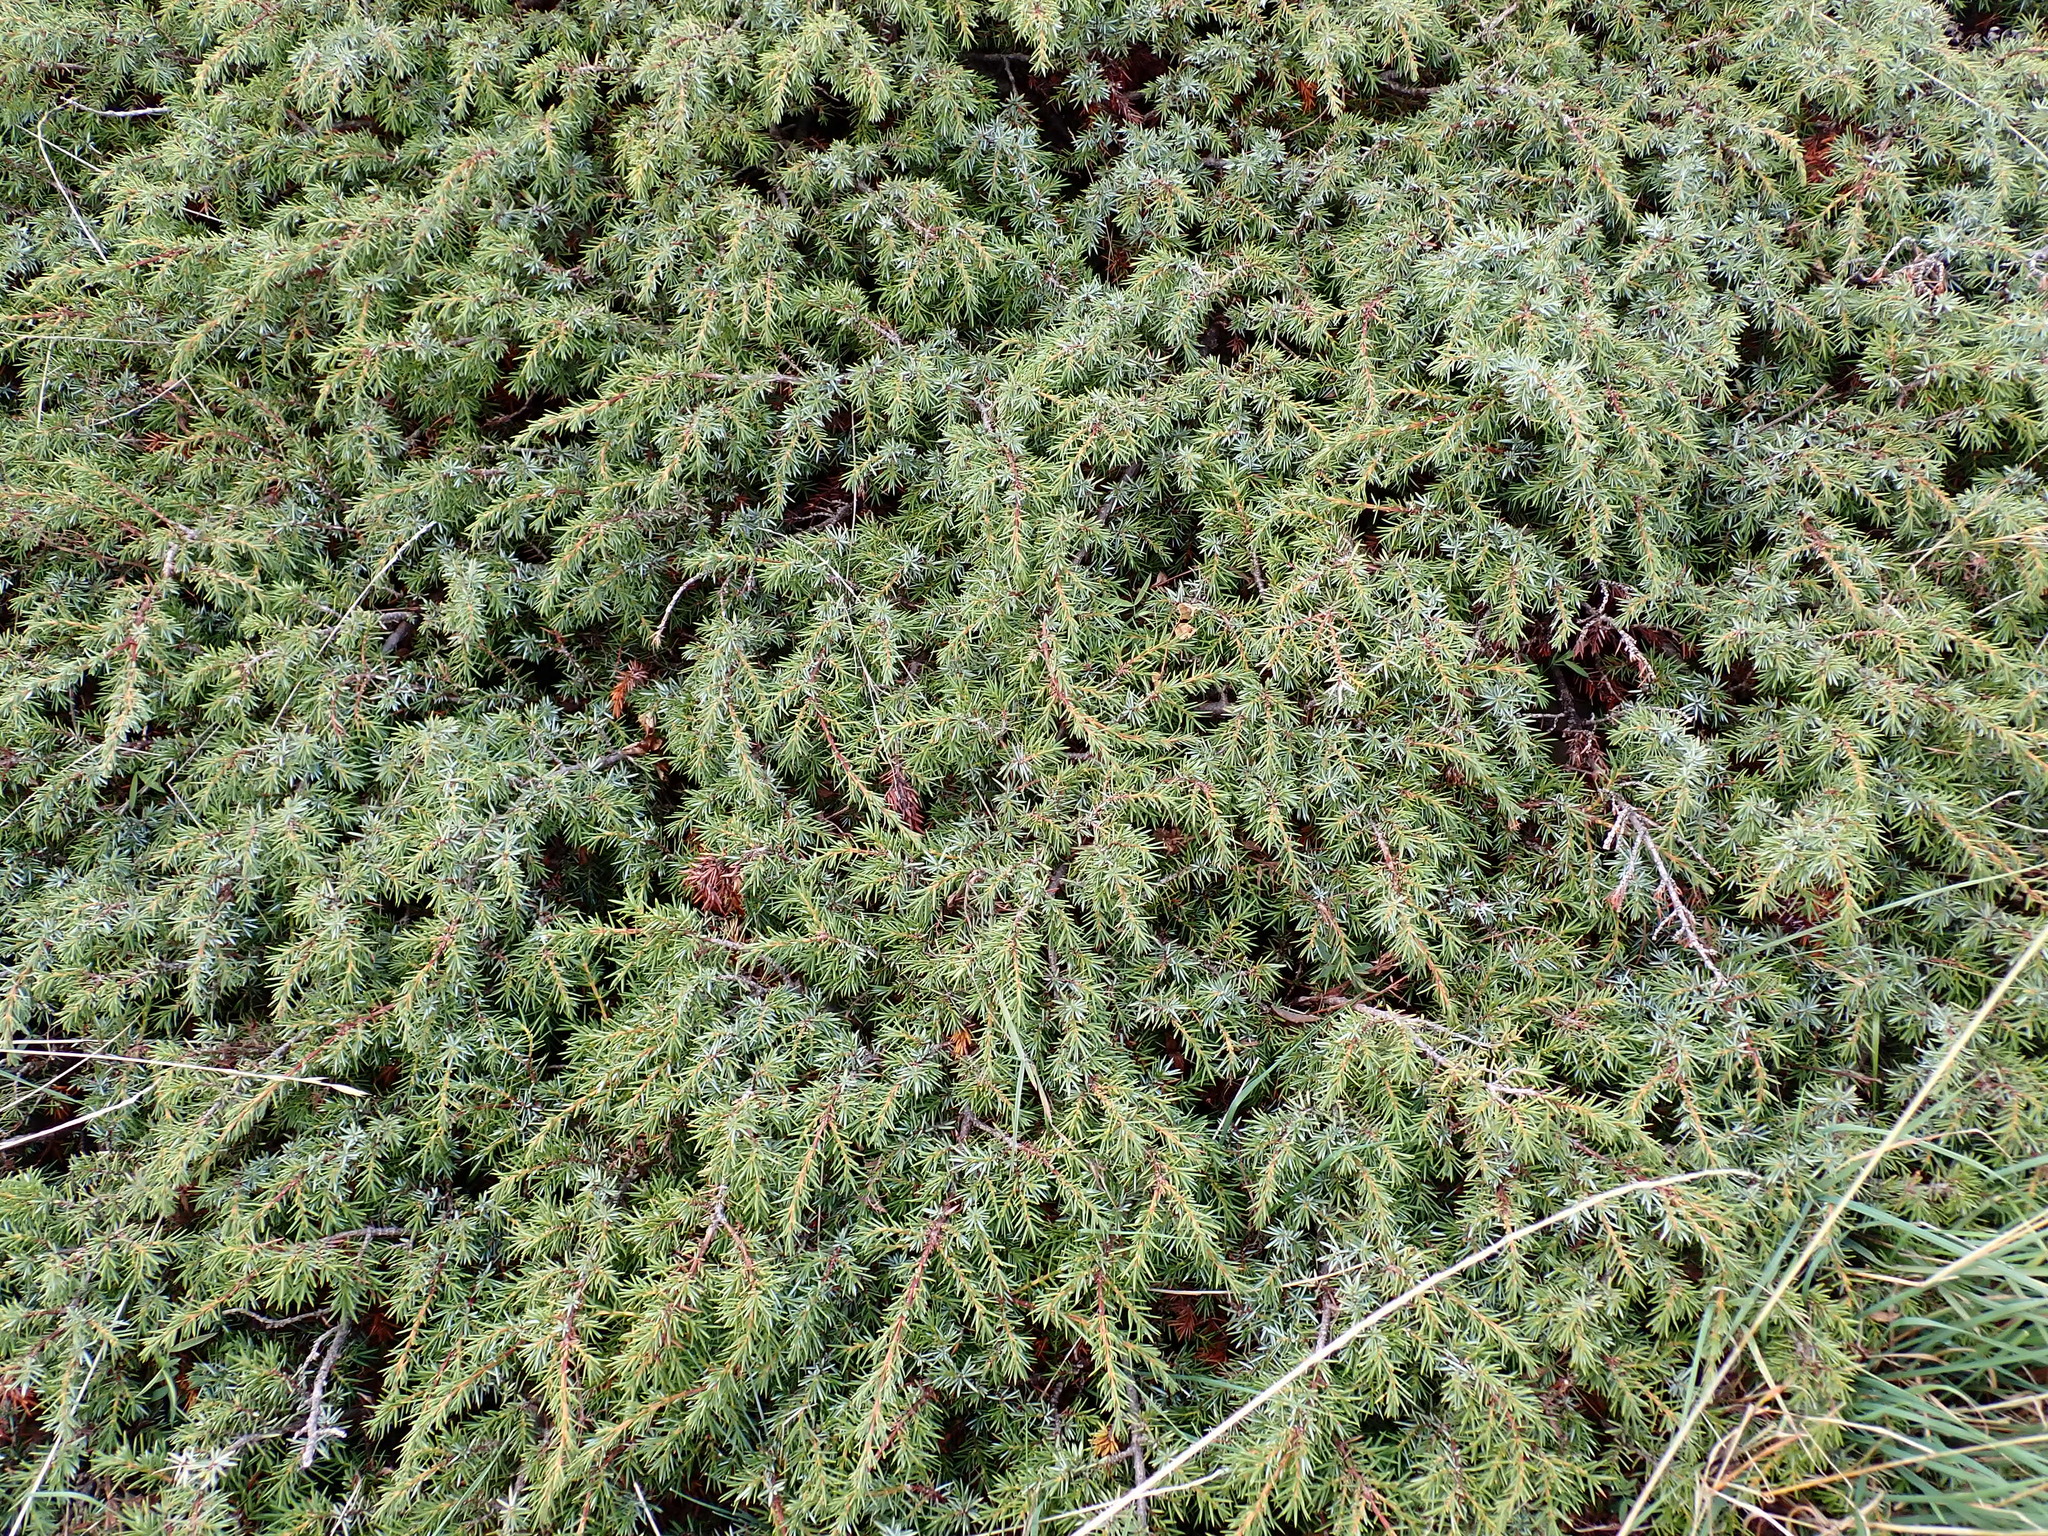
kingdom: Plantae
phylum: Tracheophyta
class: Pinopsida
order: Pinales
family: Cupressaceae
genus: Juniperus
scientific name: Juniperus communis
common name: Common juniper
